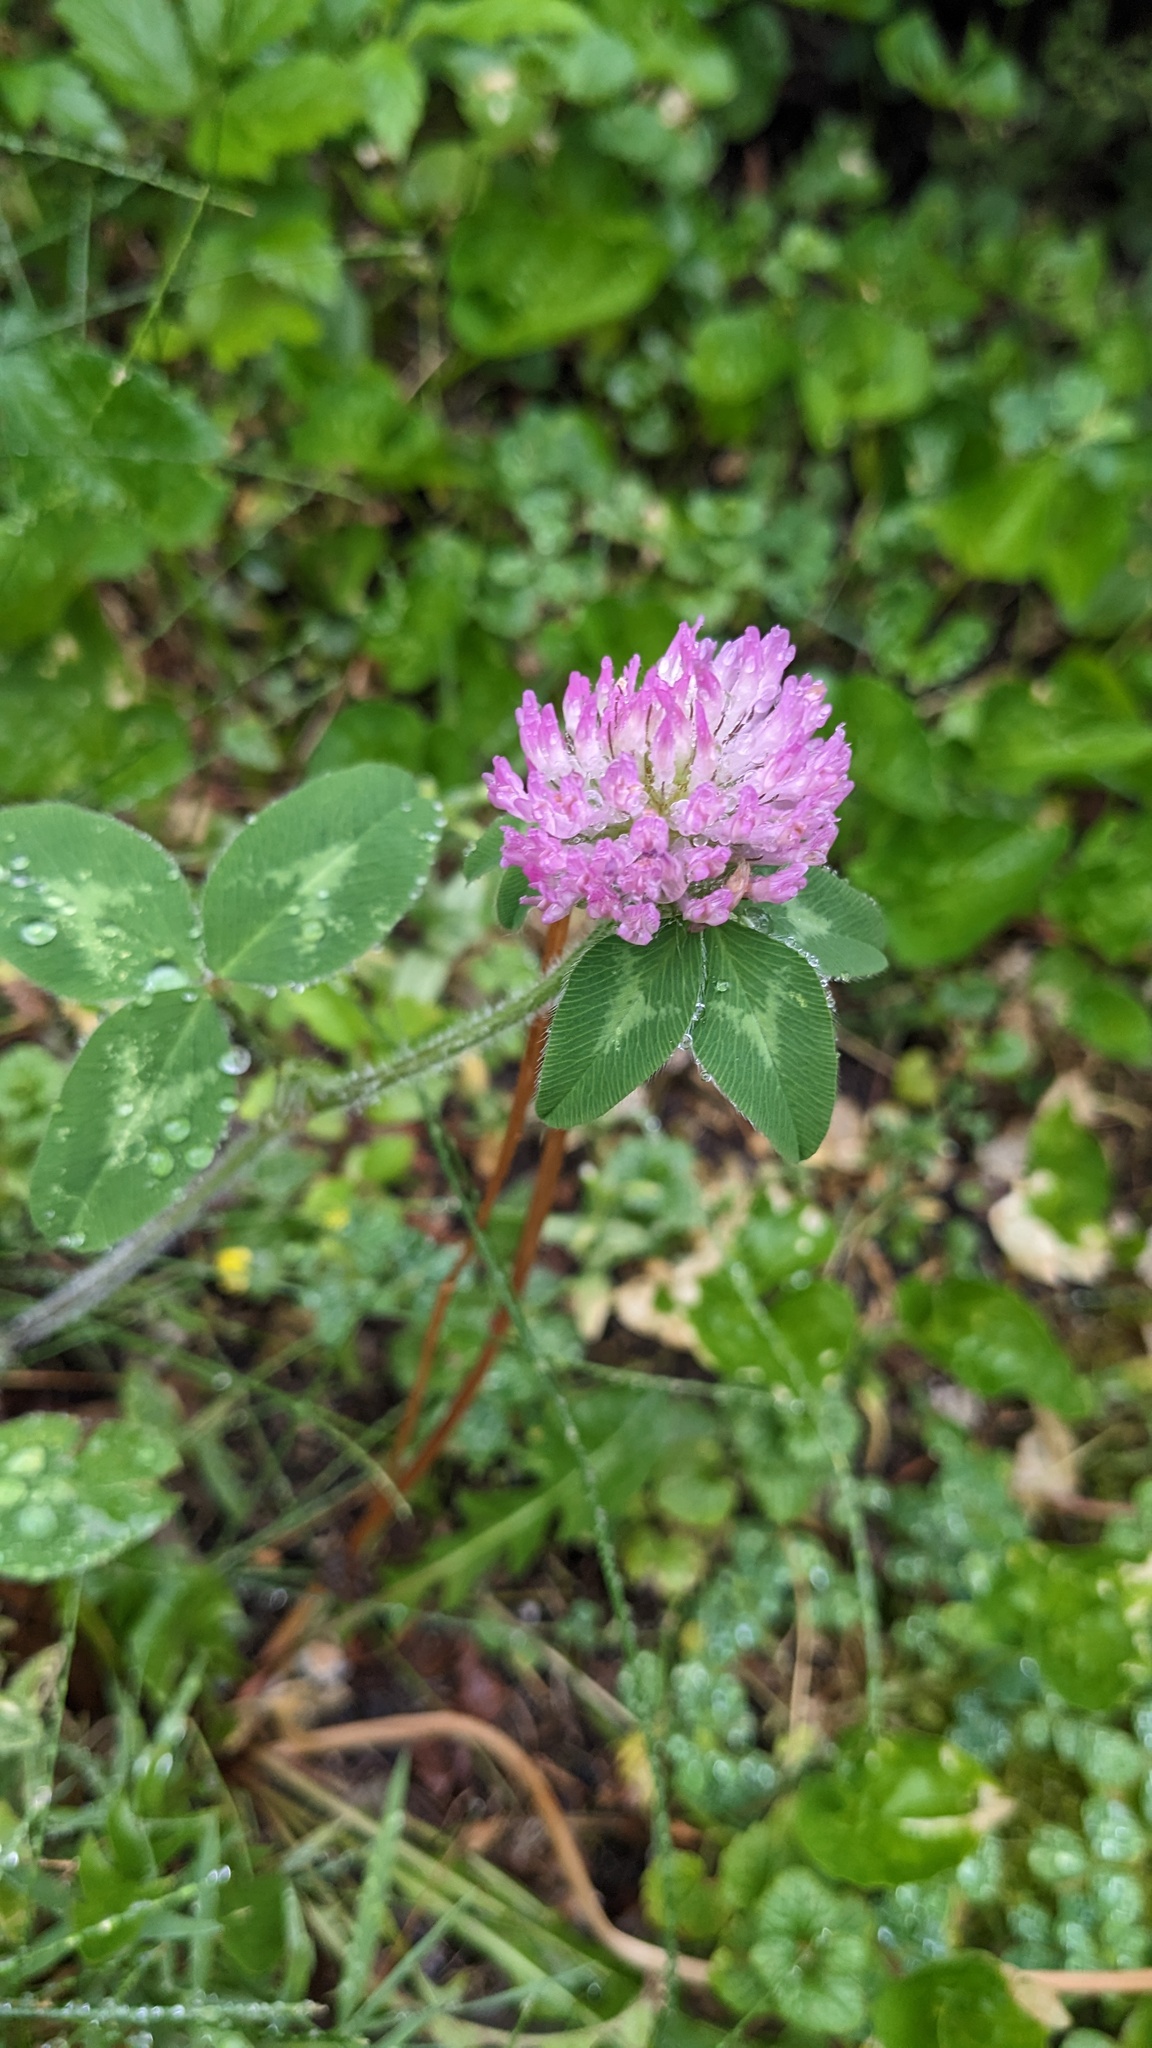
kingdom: Plantae
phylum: Tracheophyta
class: Magnoliopsida
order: Fabales
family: Fabaceae
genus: Trifolium
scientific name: Trifolium pratense
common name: Red clover
